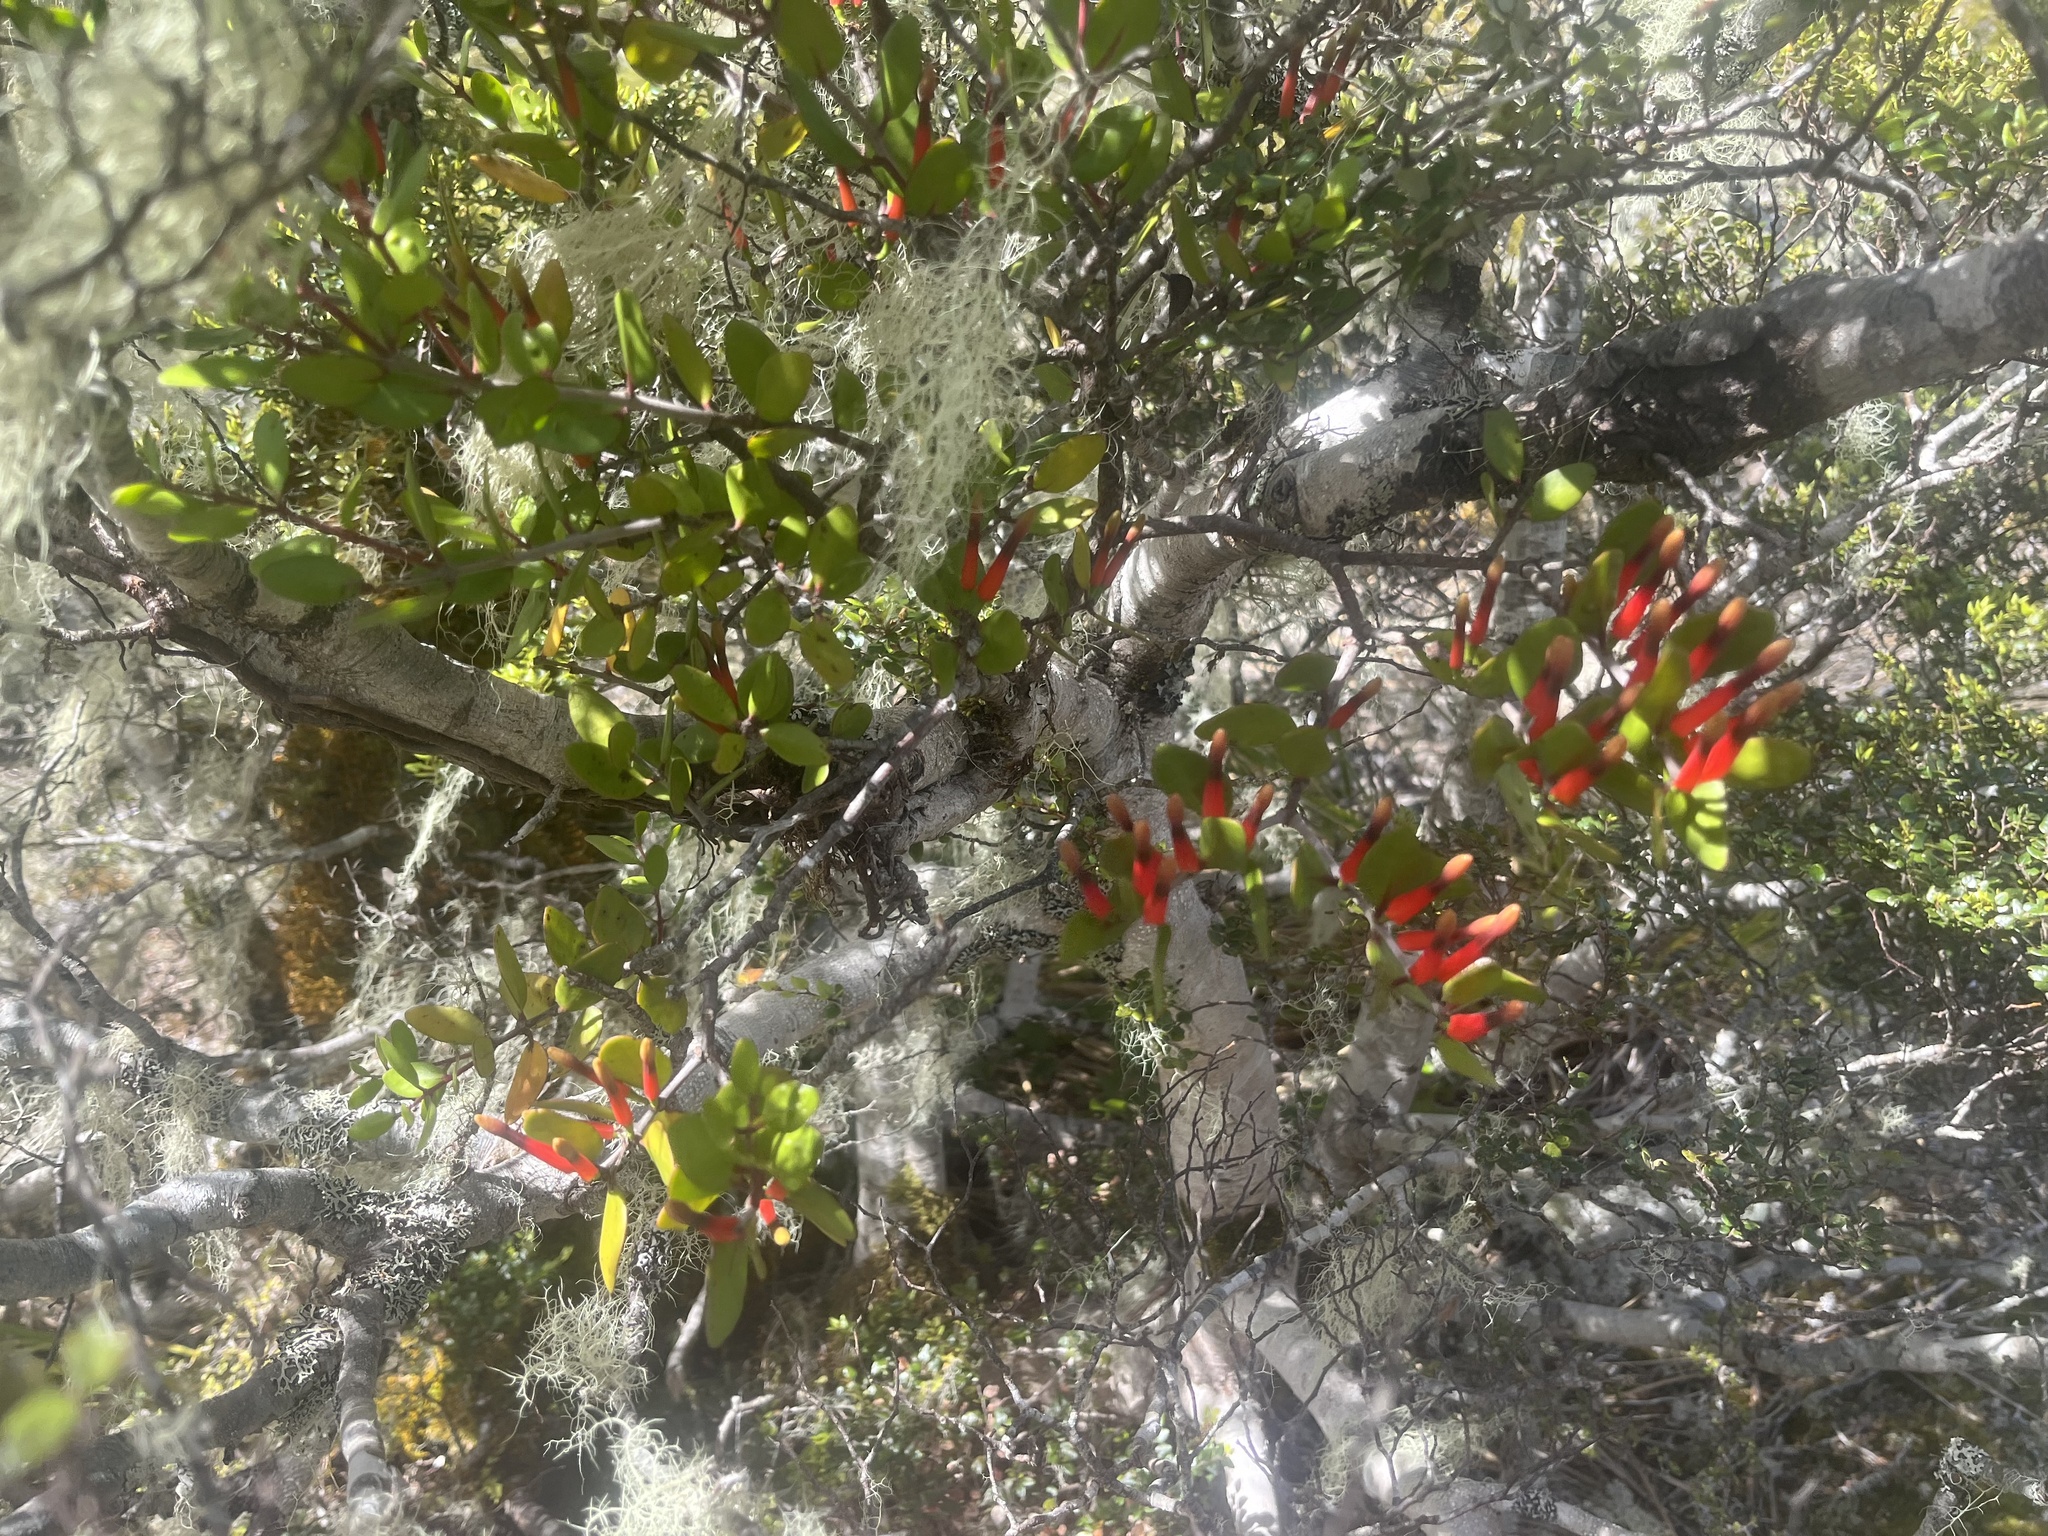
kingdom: Plantae
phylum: Tracheophyta
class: Magnoliopsida
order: Santalales
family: Loranthaceae
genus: Peraxilla
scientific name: Peraxilla tetrapetala
